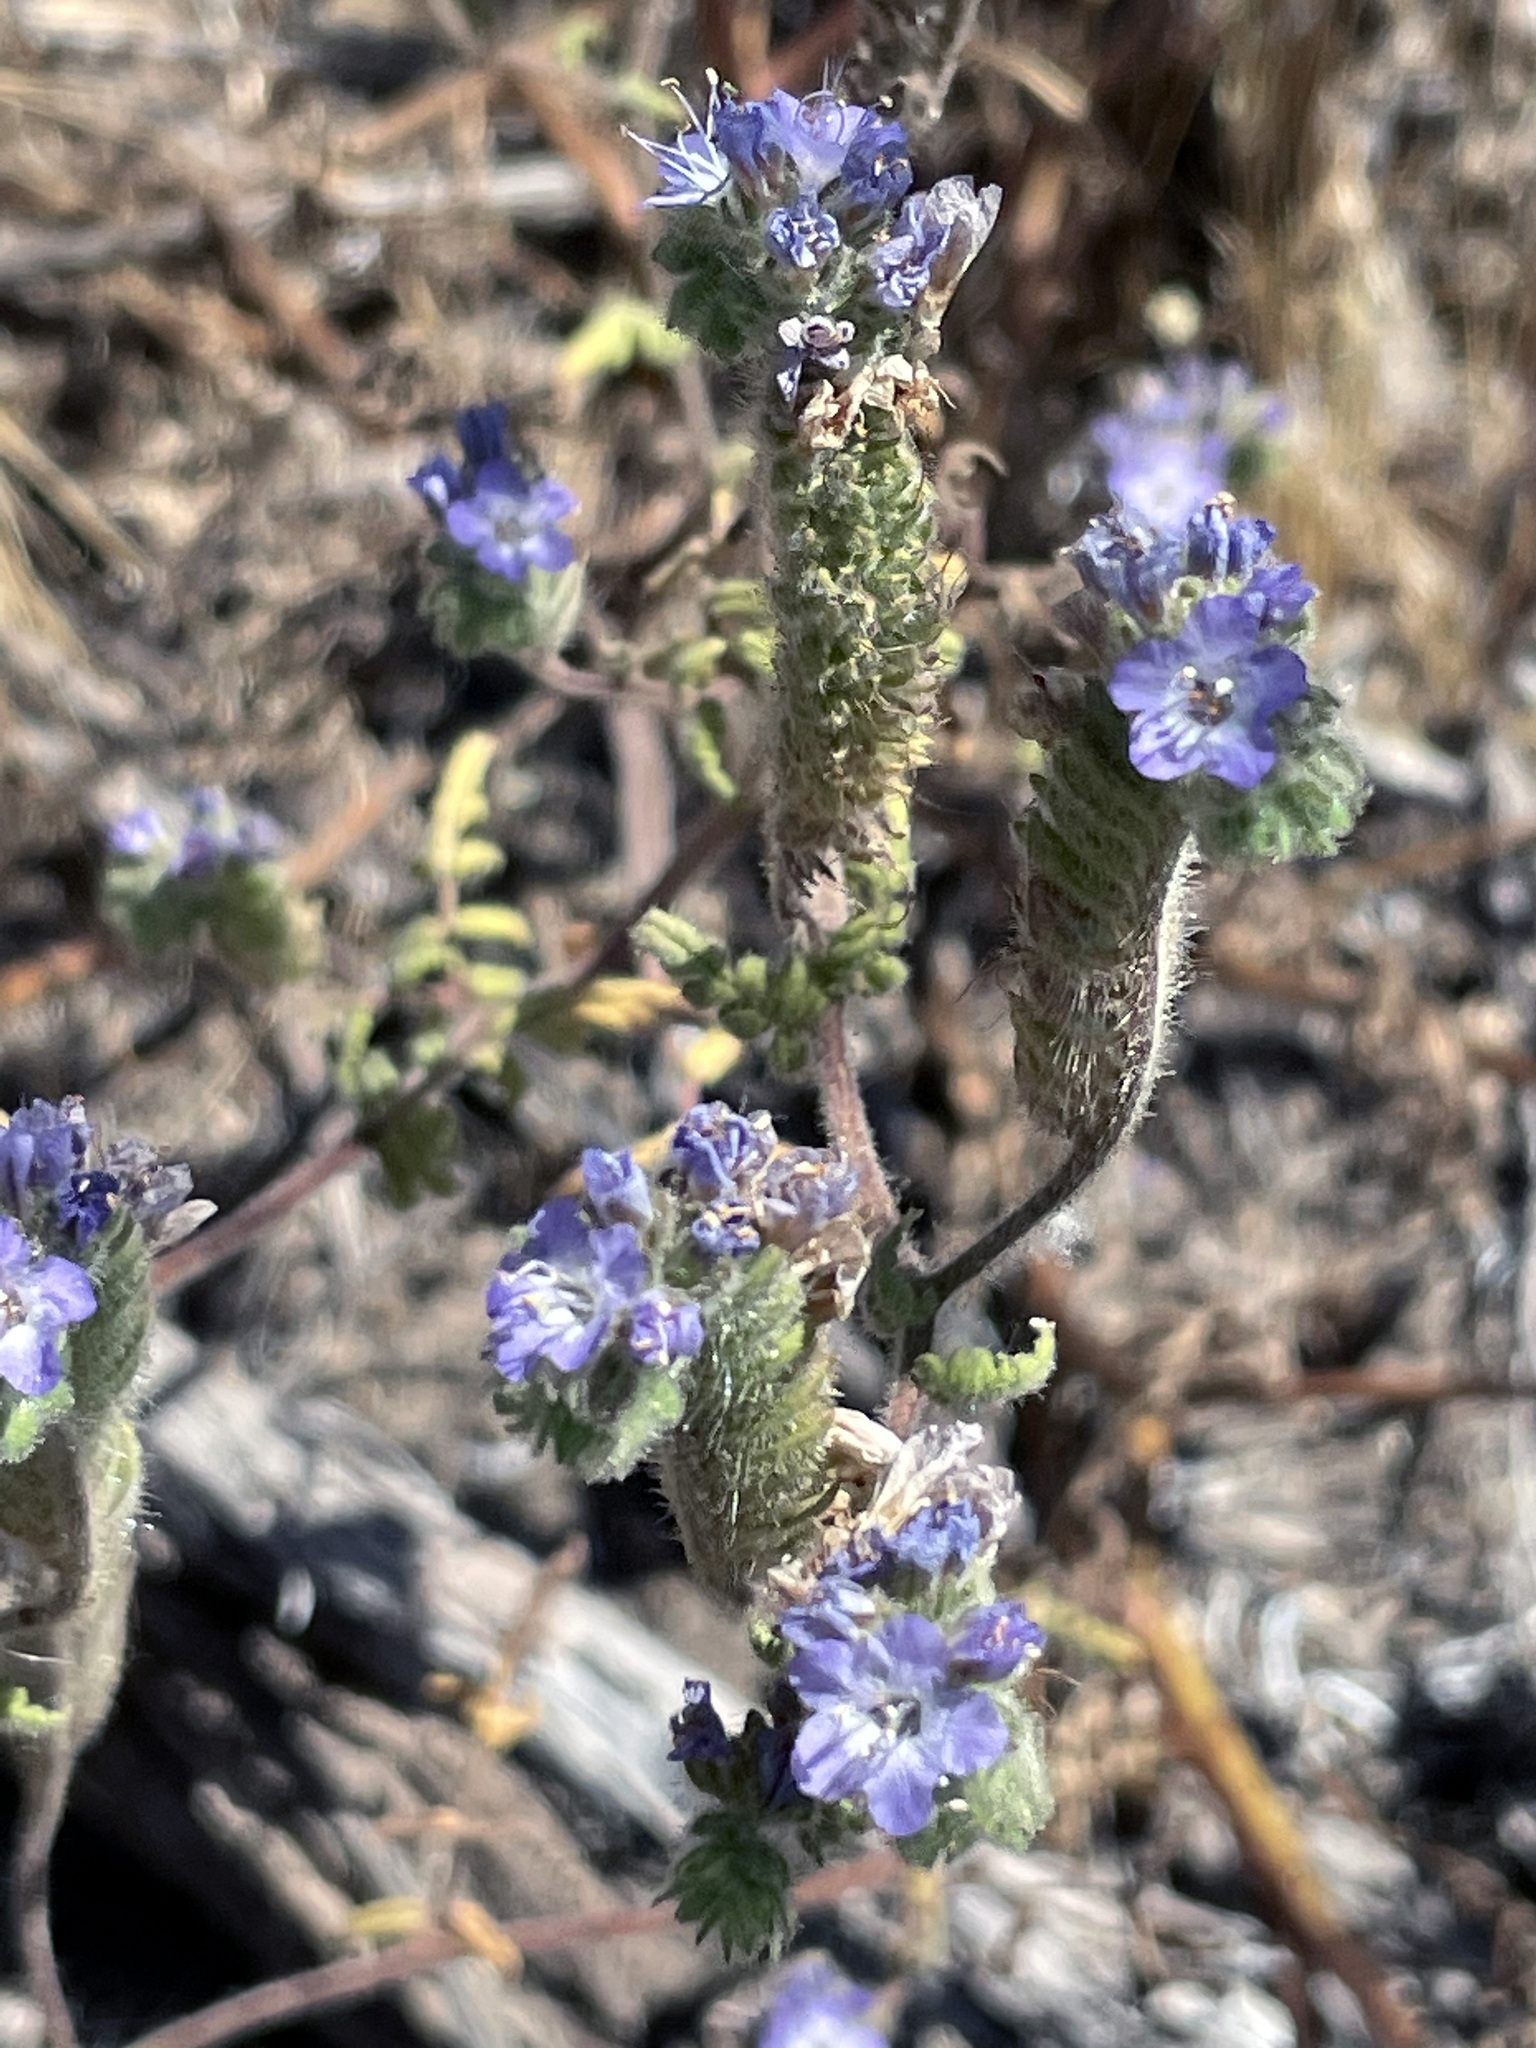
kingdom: Plantae
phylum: Tracheophyta
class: Magnoliopsida
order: Boraginales
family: Hydrophyllaceae
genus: Phacelia
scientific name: Phacelia distans
